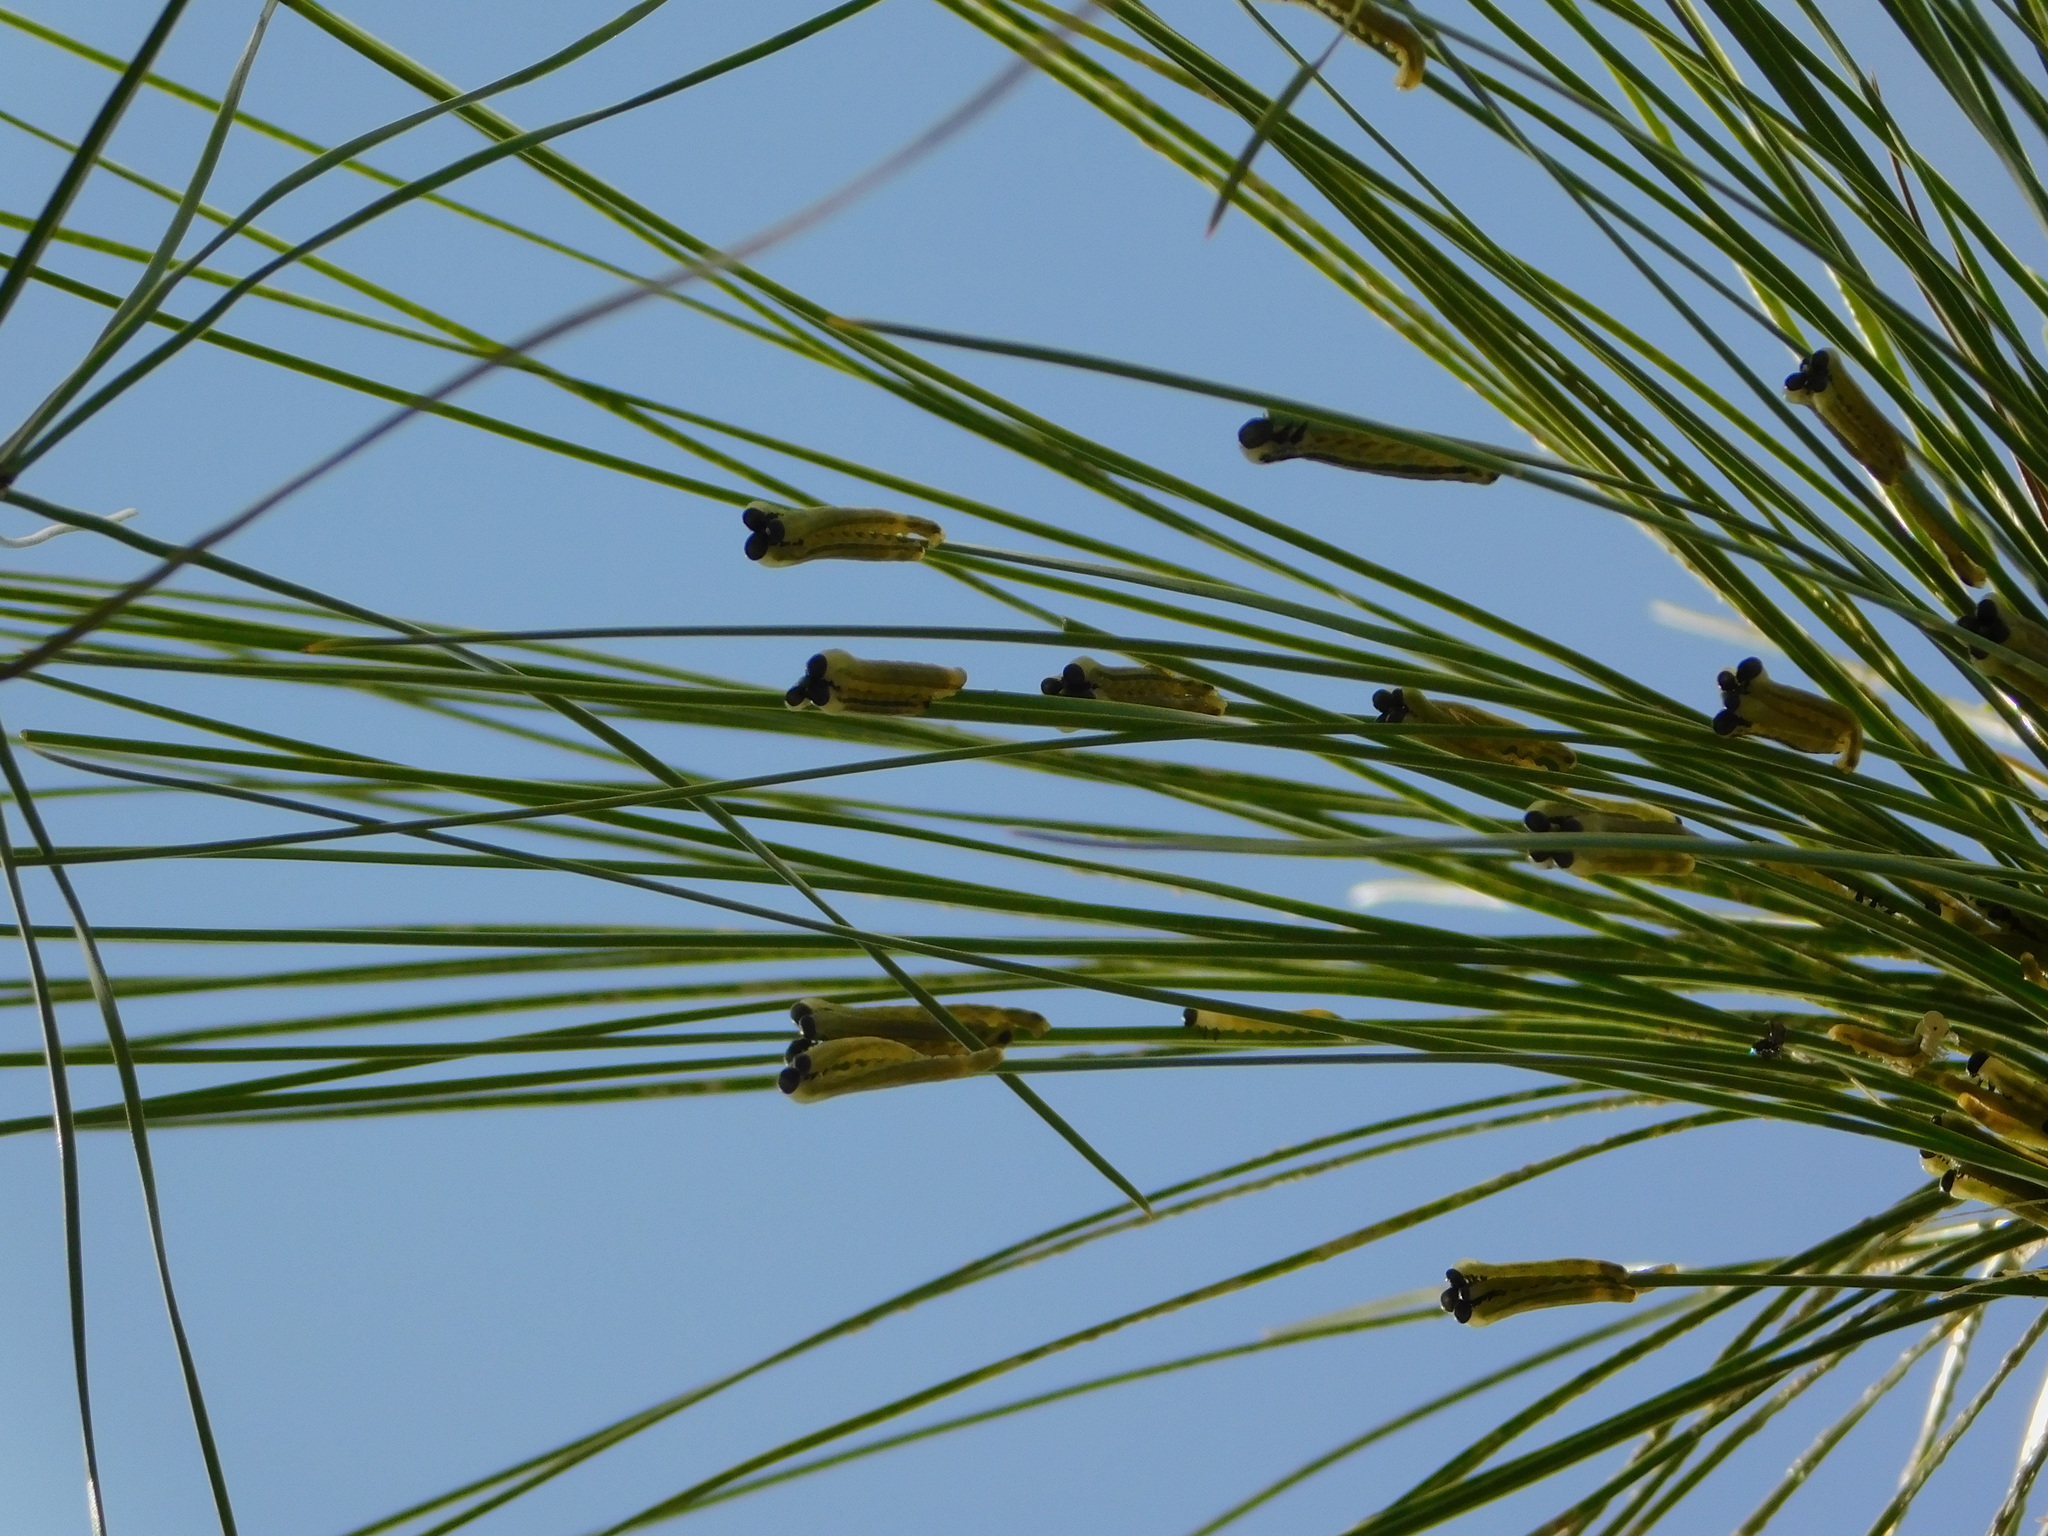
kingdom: Animalia
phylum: Arthropoda
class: Insecta
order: Hymenoptera
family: Diprionidae
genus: Neodiprion
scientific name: Neodiprion merkeli
